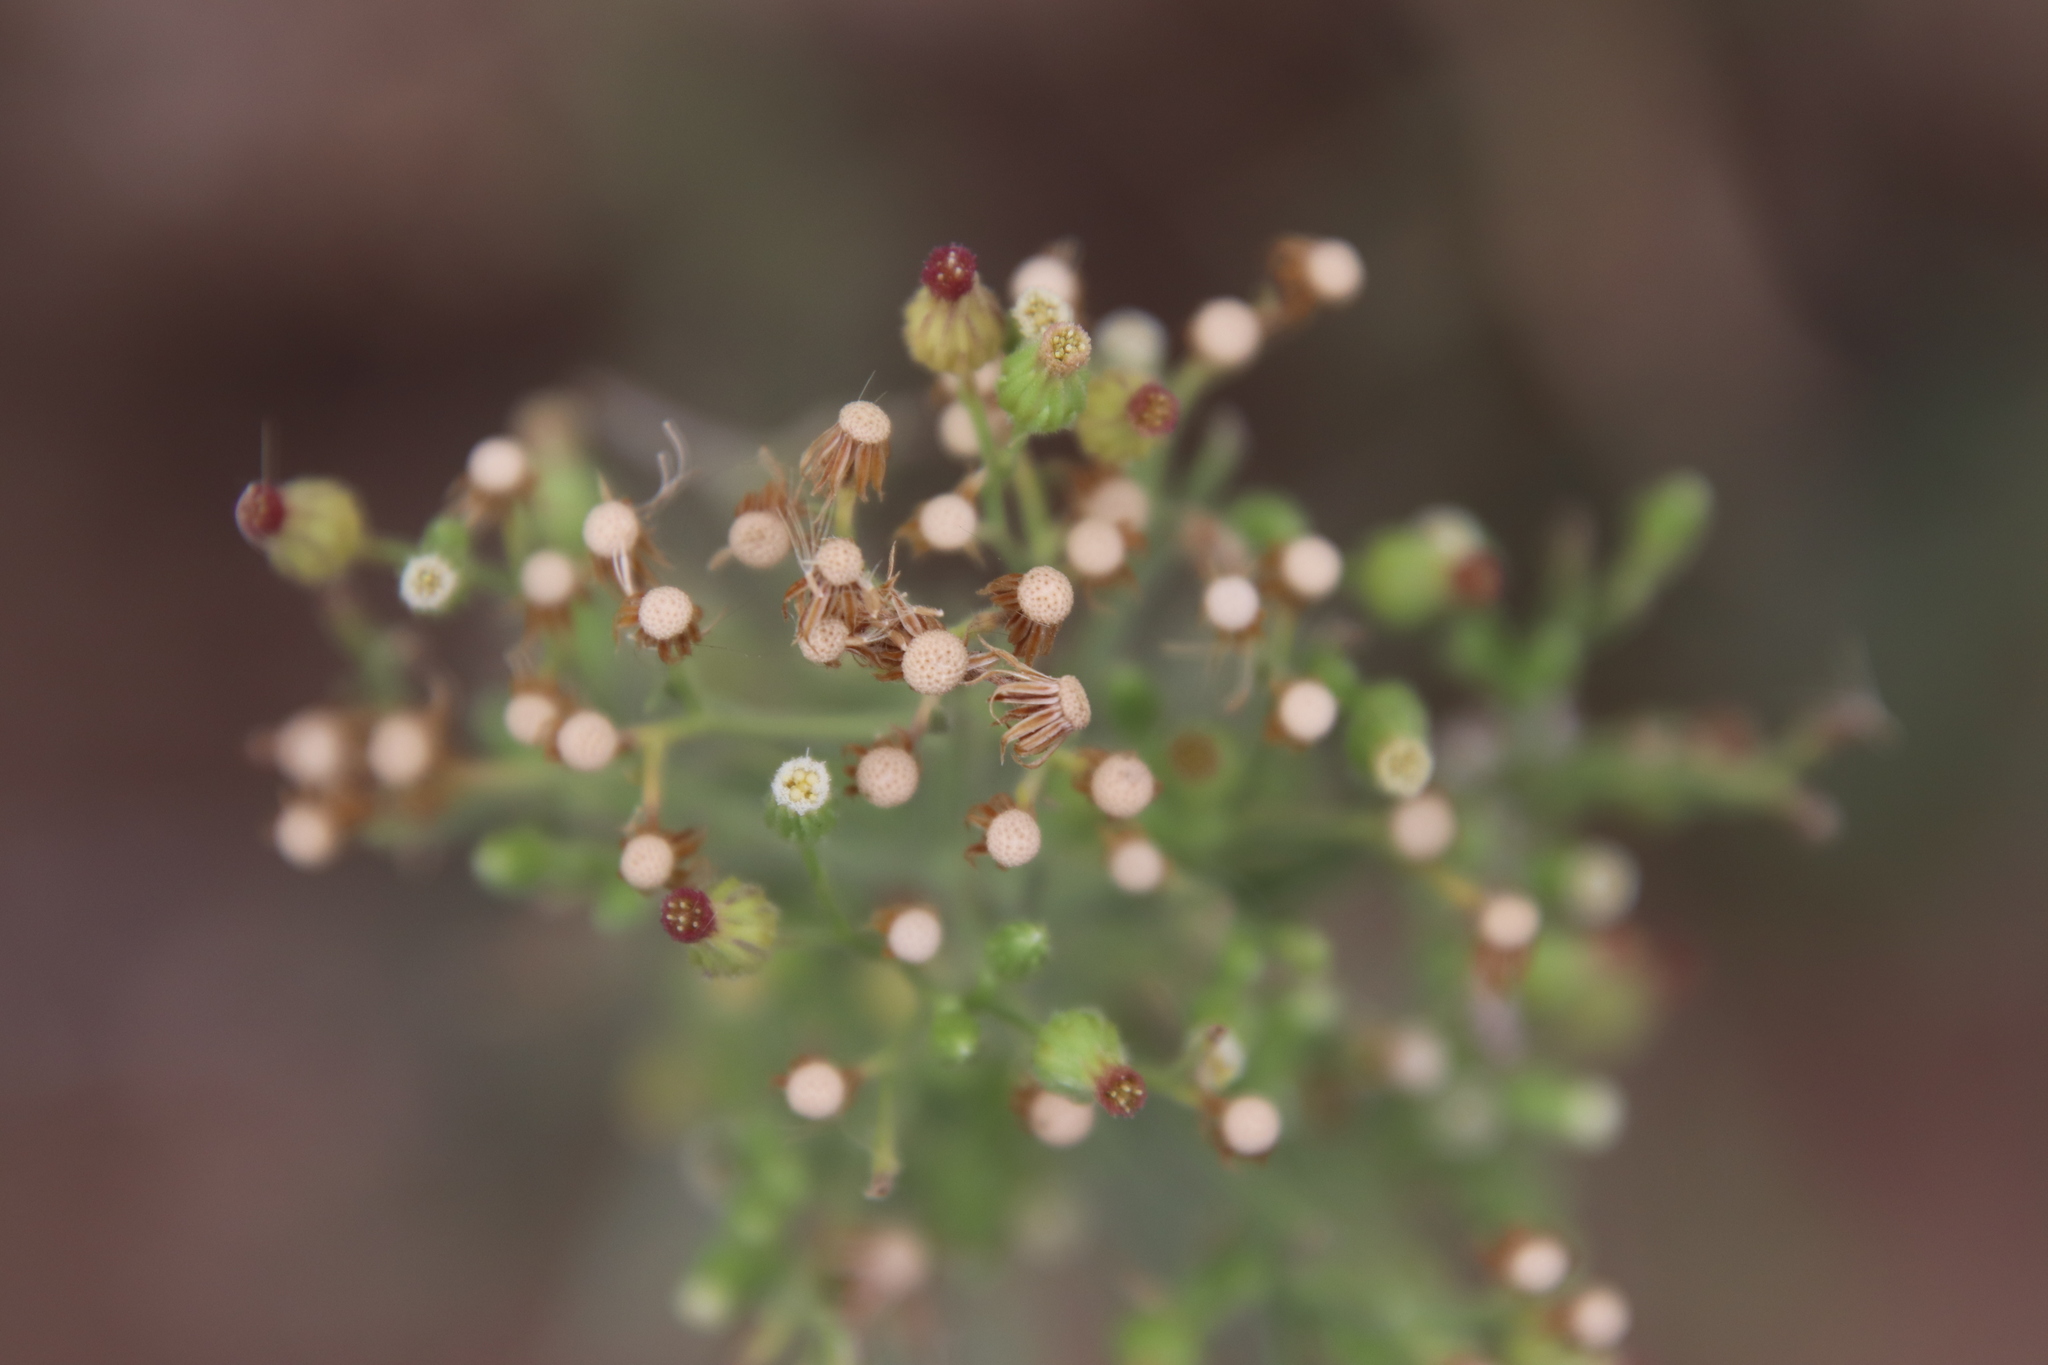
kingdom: Plantae
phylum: Tracheophyta
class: Magnoliopsida
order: Asterales
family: Asteraceae
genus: Erigeron
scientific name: Erigeron sumatrensis
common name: Daisy
